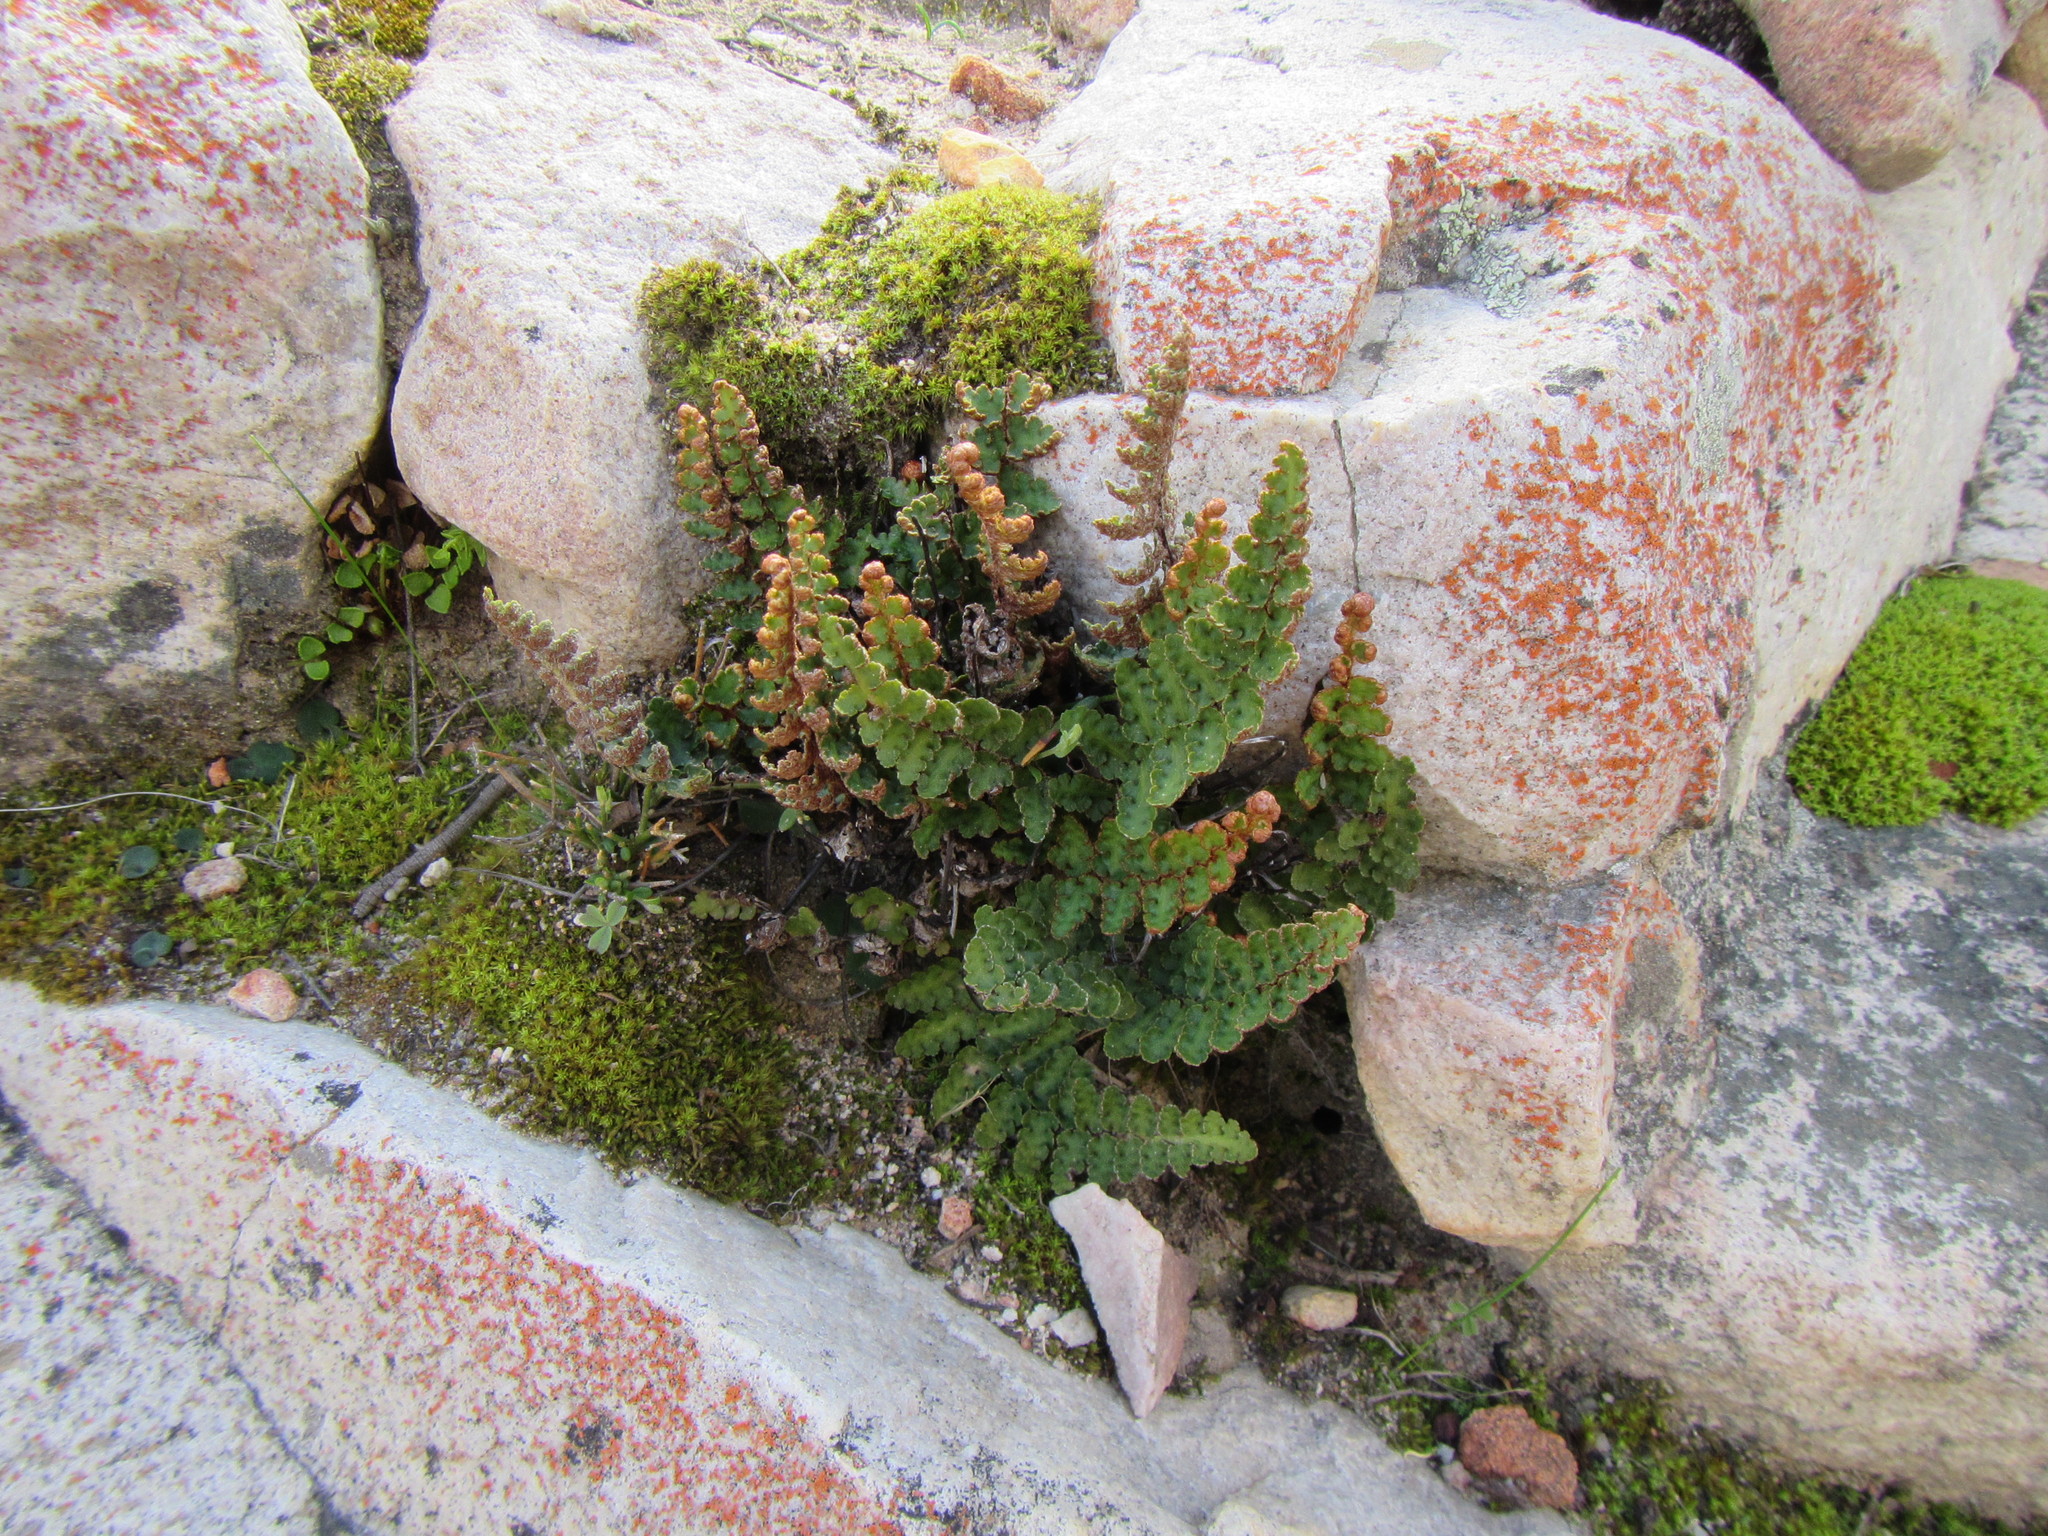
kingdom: Plantae
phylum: Tracheophyta
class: Polypodiopsida
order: Polypodiales
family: Aspleniaceae
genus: Asplenium
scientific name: Asplenium cordatum
